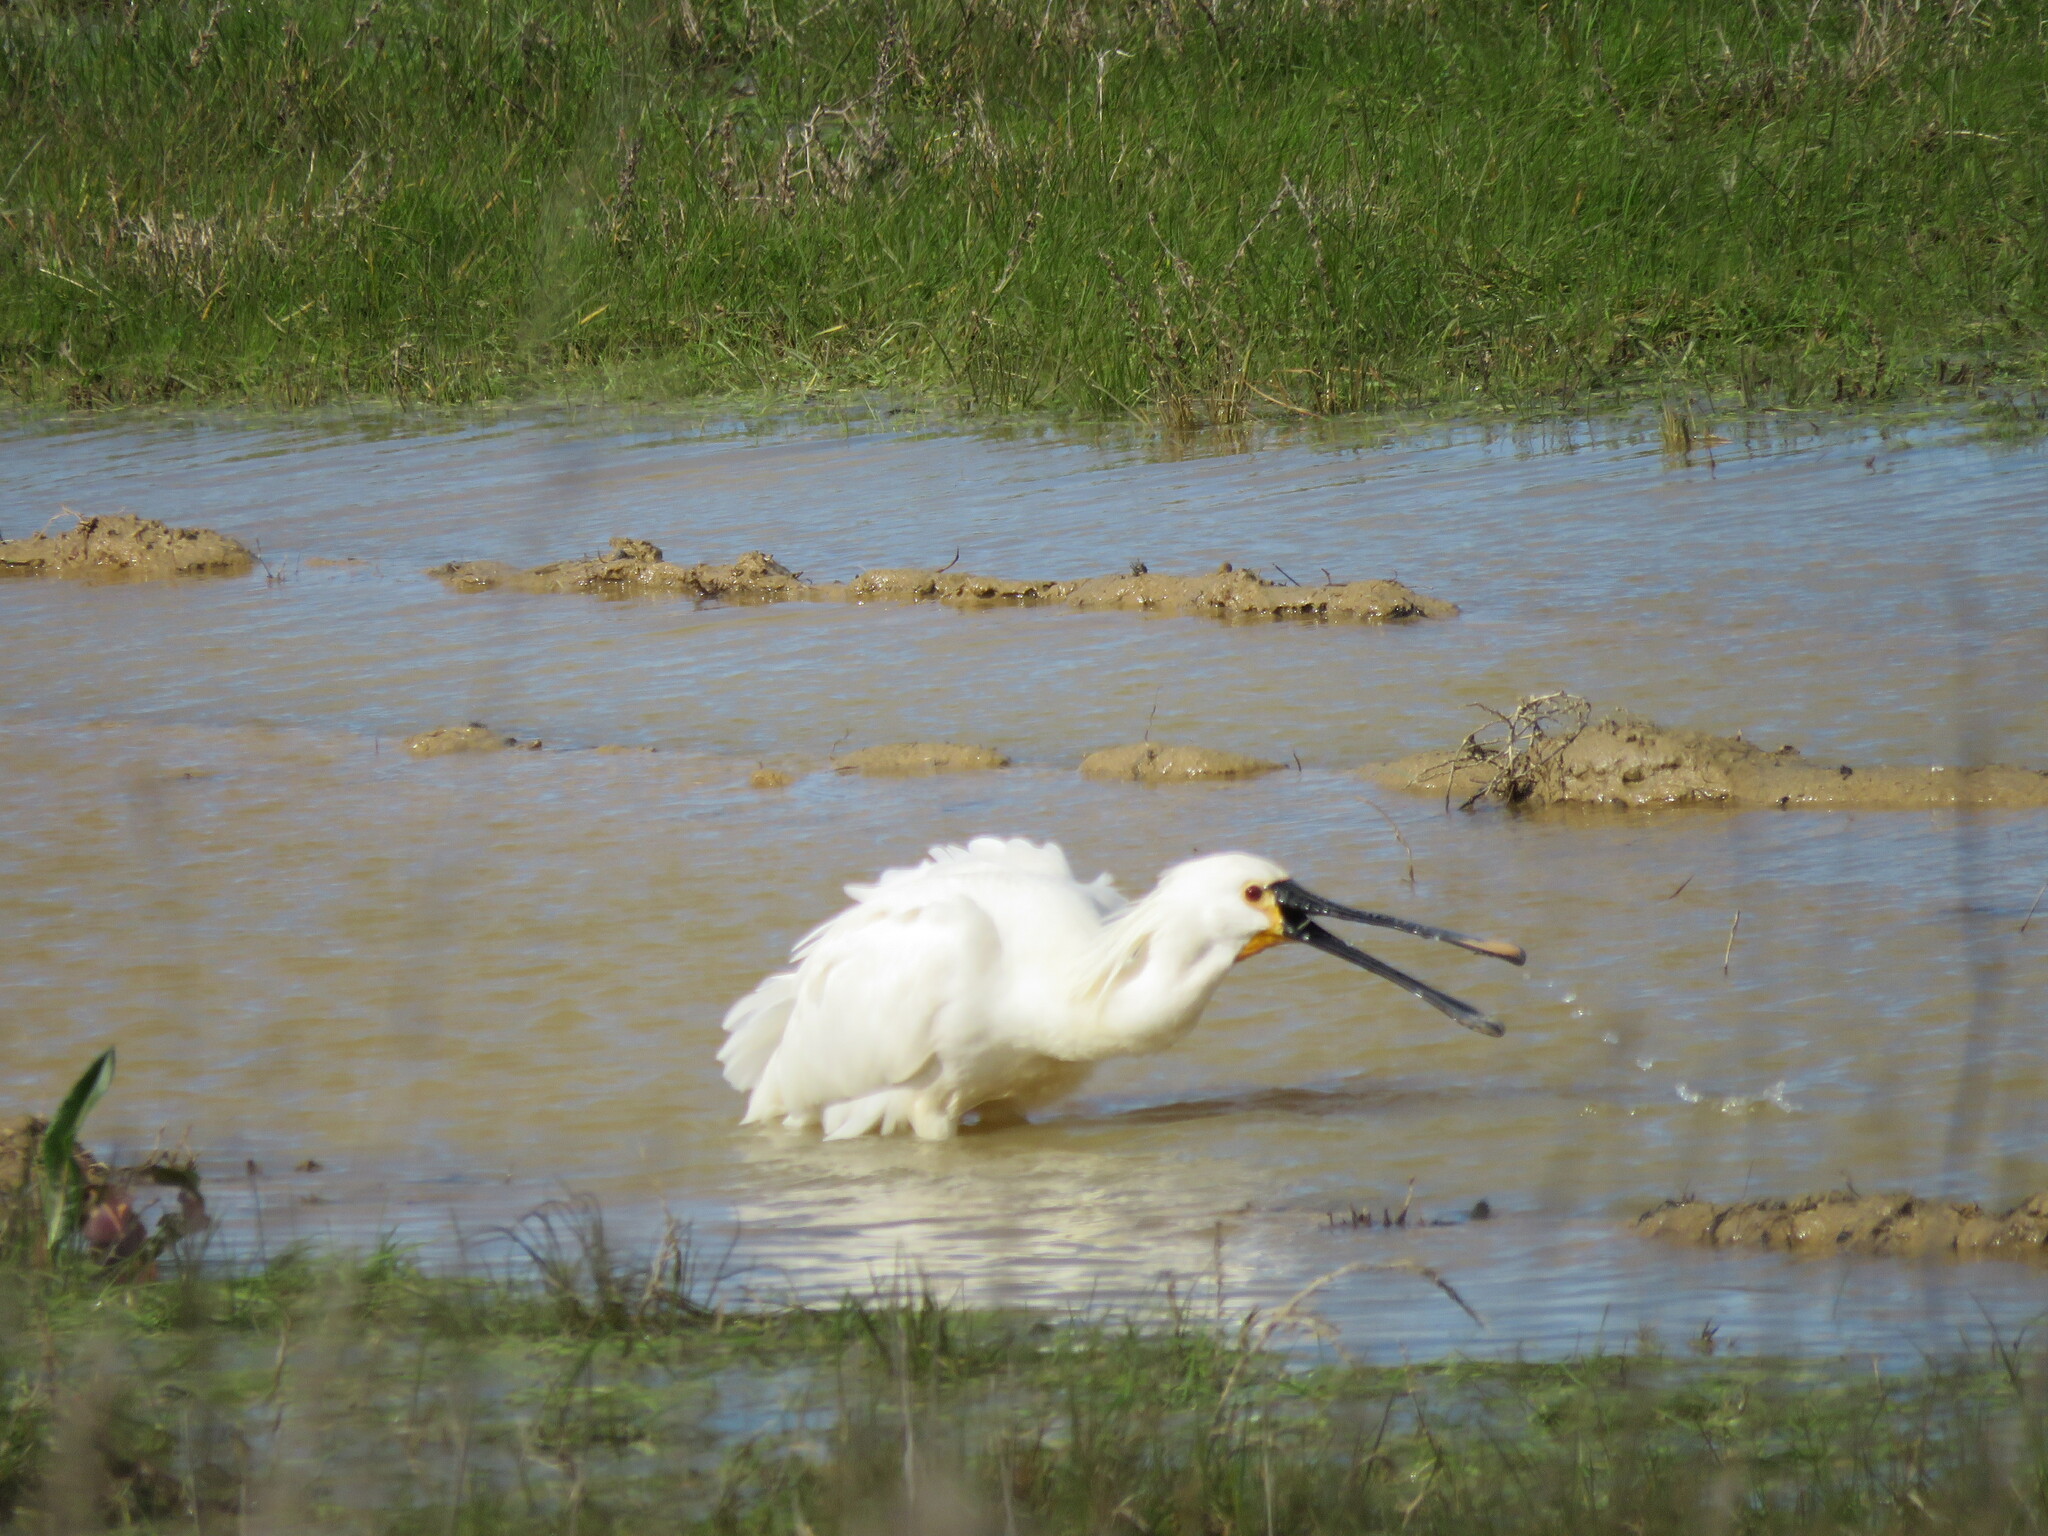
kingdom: Animalia
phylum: Chordata
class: Aves
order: Pelecaniformes
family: Threskiornithidae
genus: Platalea
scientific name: Platalea leucorodia
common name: Eurasian spoonbill
